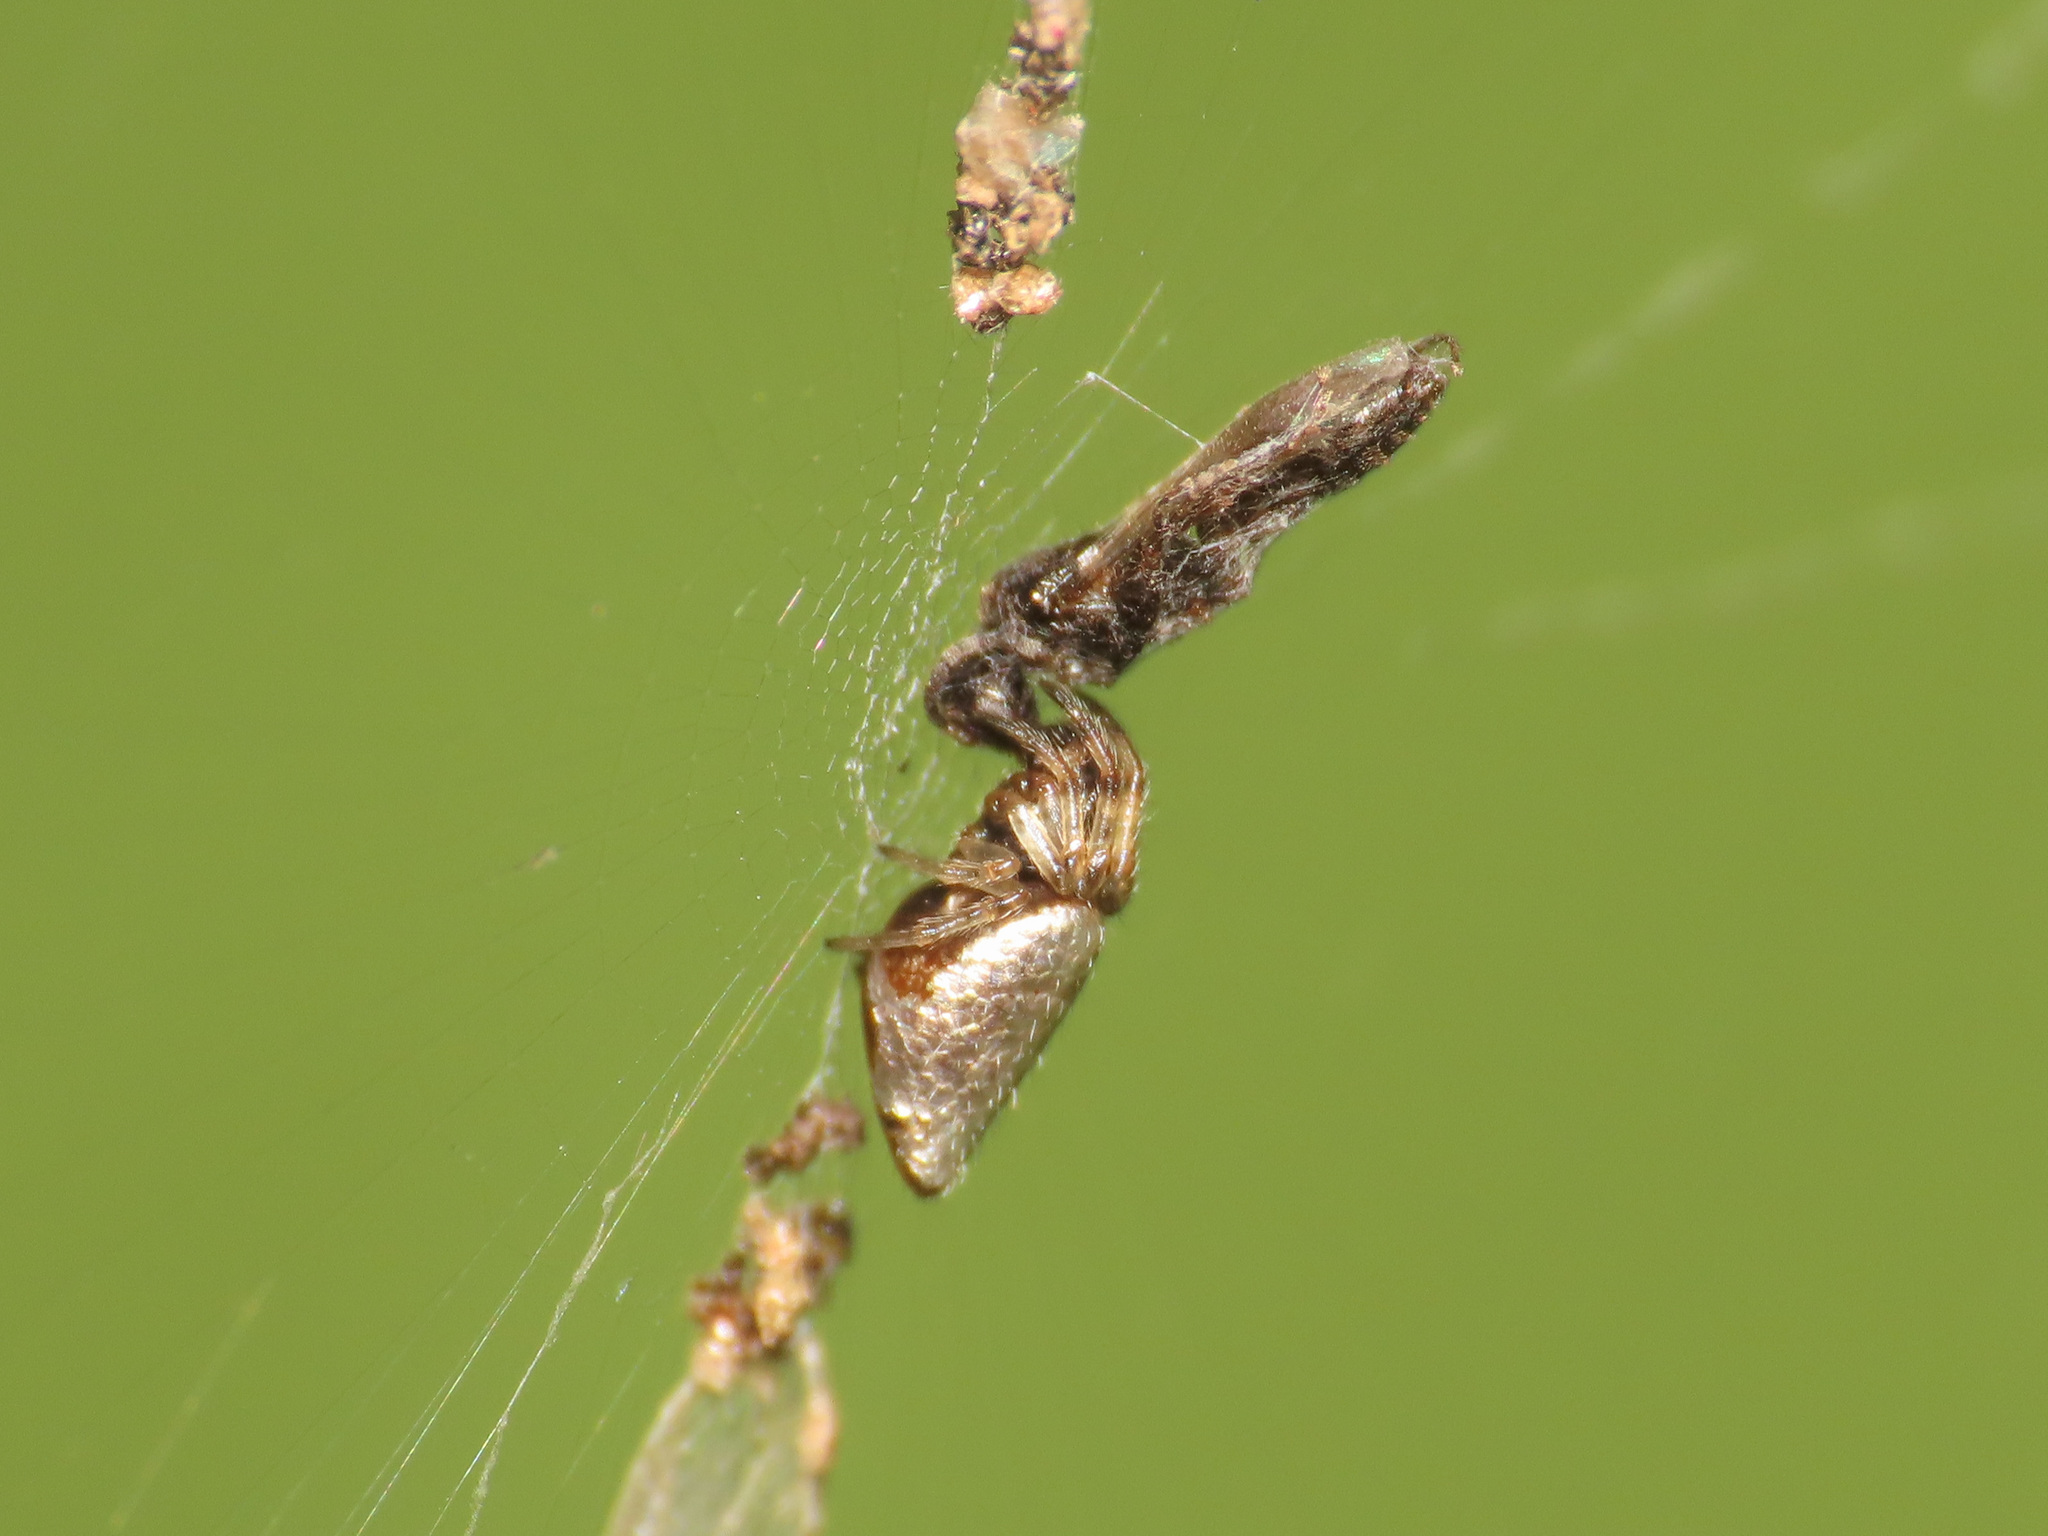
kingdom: Animalia
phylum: Arthropoda
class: Arachnida
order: Araneae
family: Araneidae
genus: Cyclosa
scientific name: Cyclosa insulana
